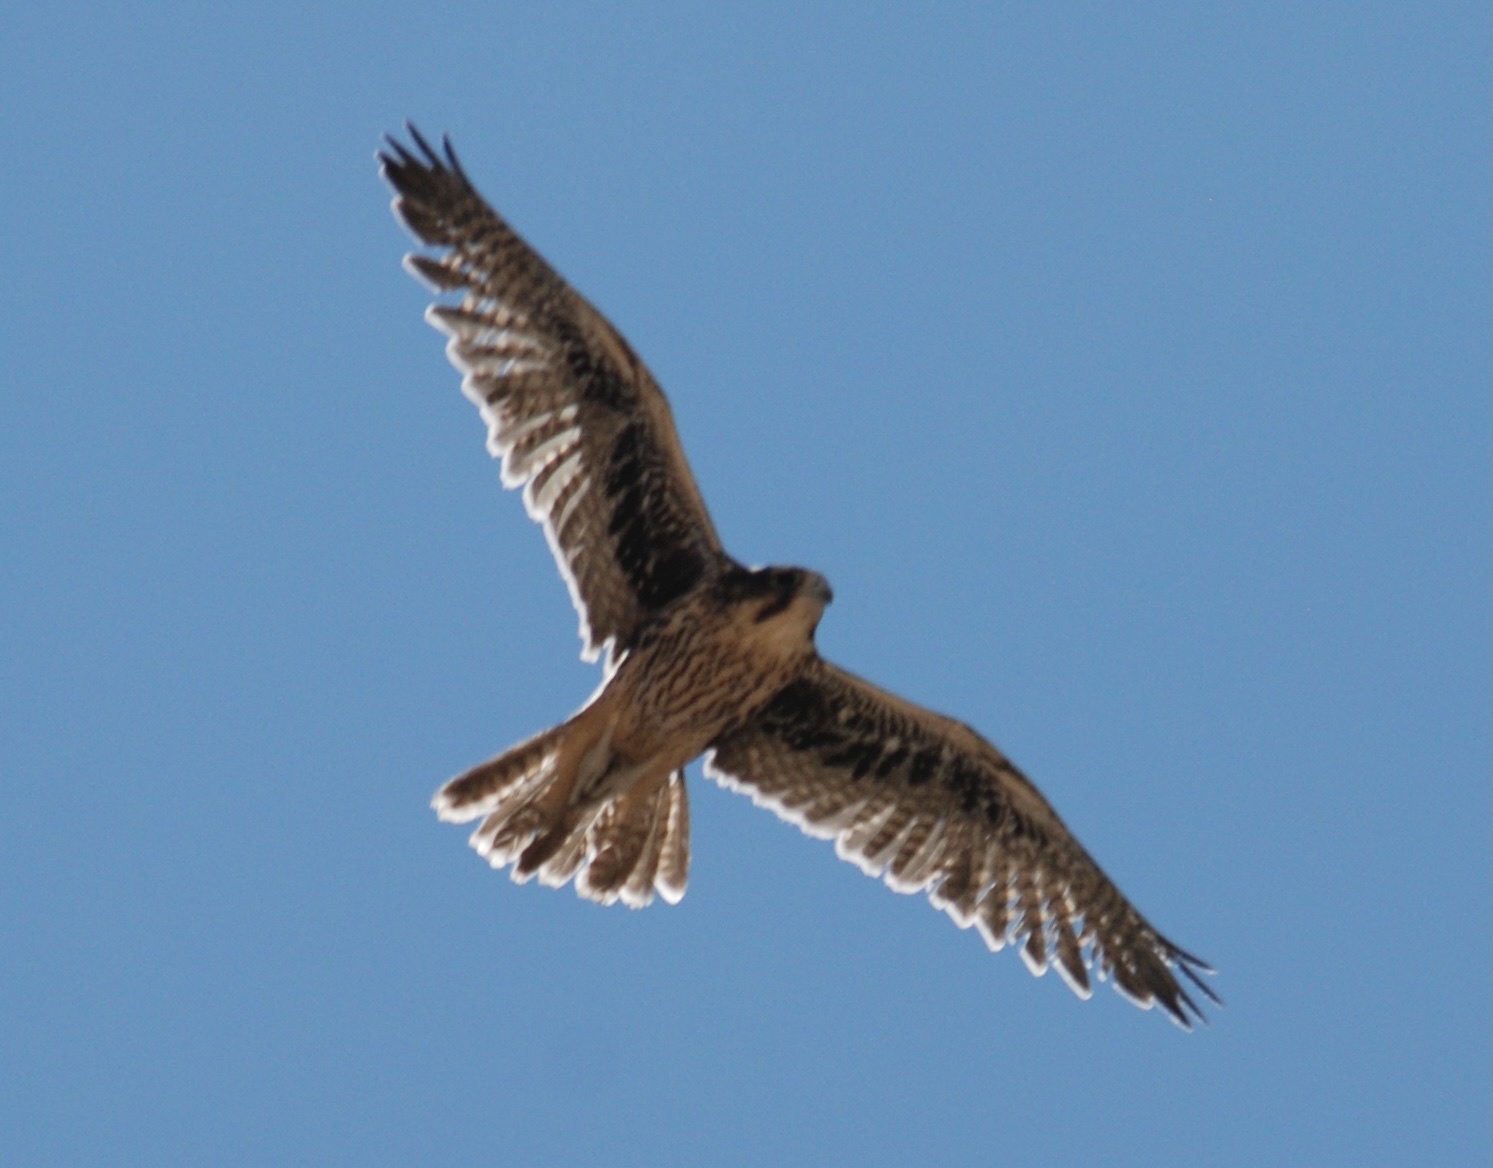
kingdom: Animalia
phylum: Chordata
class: Aves
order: Falconiformes
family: Falconidae
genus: Falco
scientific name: Falco mexicanus
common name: Prairie falcon
